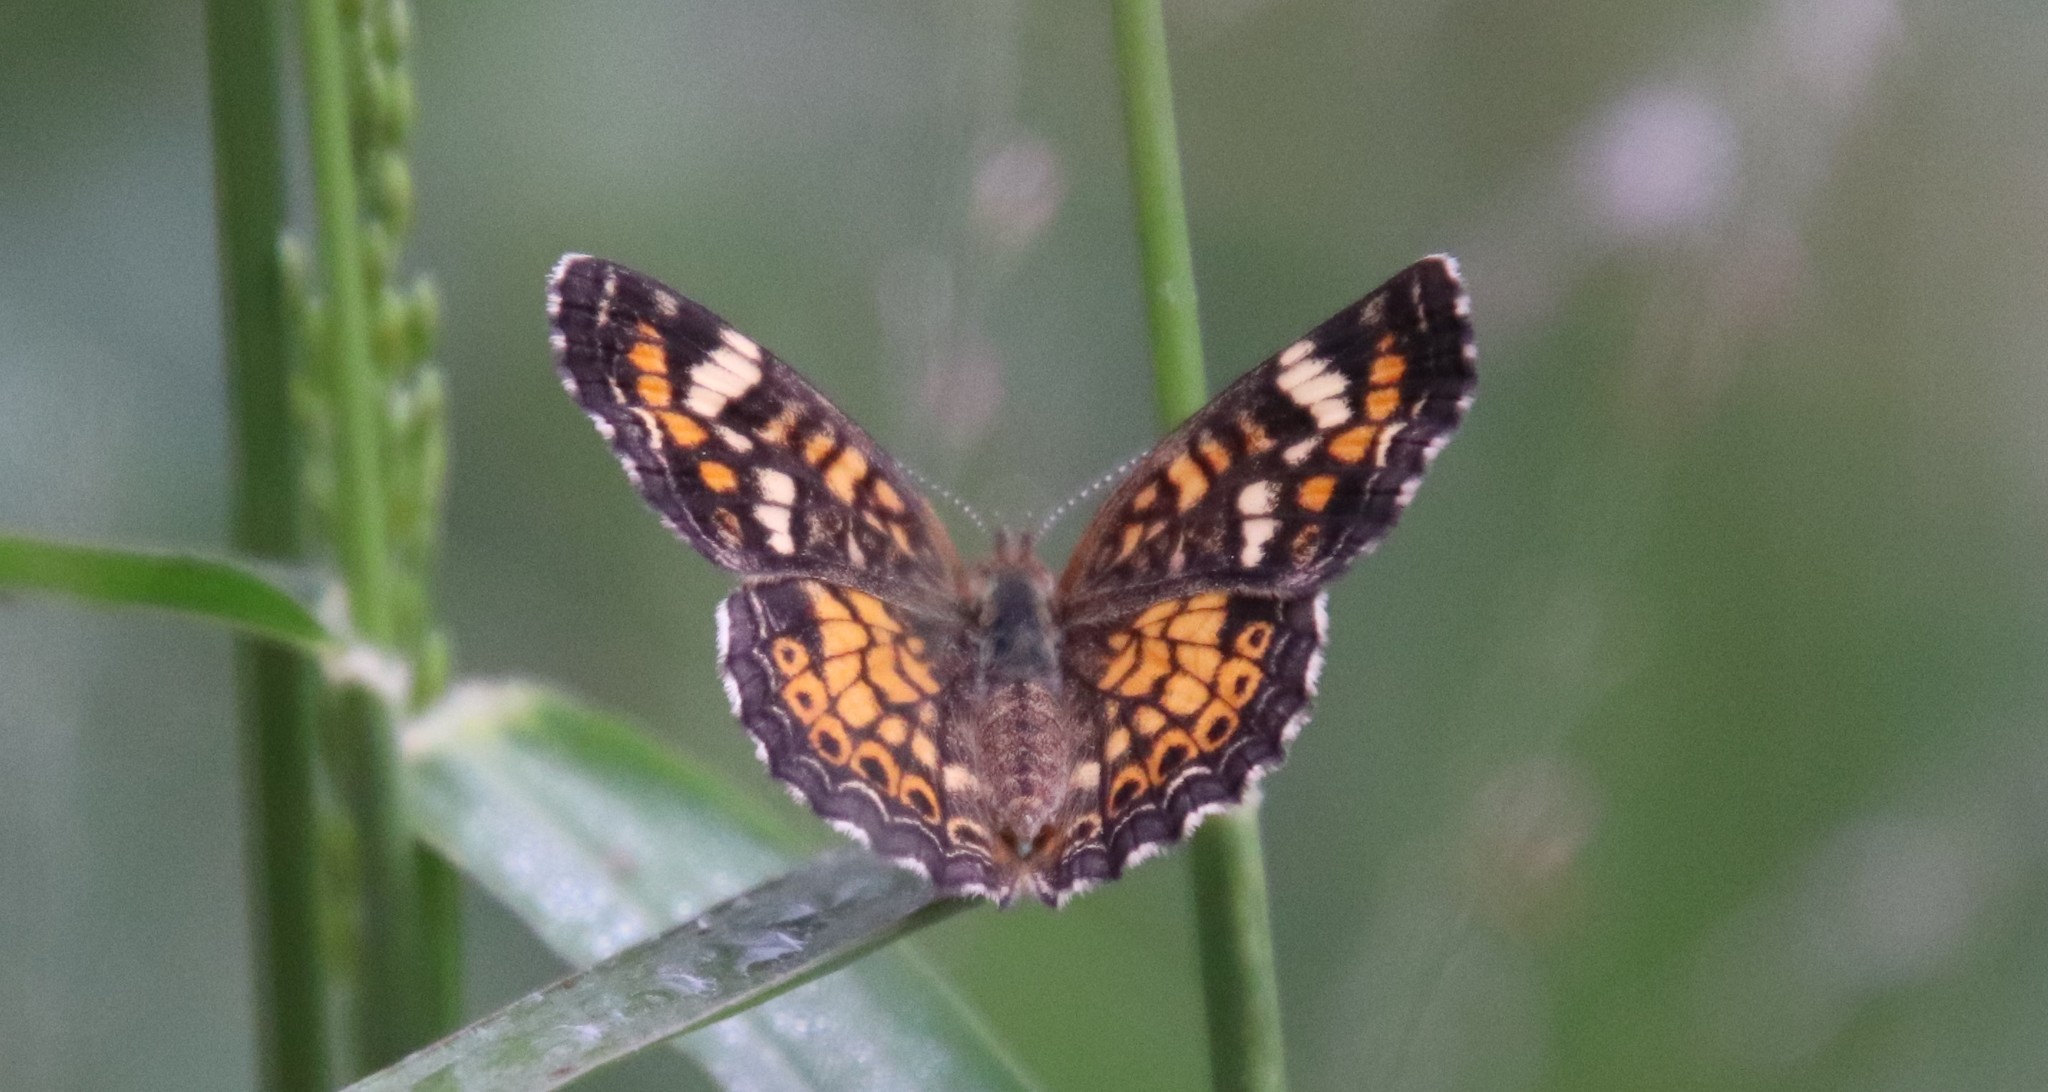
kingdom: Animalia
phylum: Arthropoda
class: Insecta
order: Lepidoptera
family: Nymphalidae
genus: Phyciodes
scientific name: Phyciodes phaon
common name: Phaon crescent
